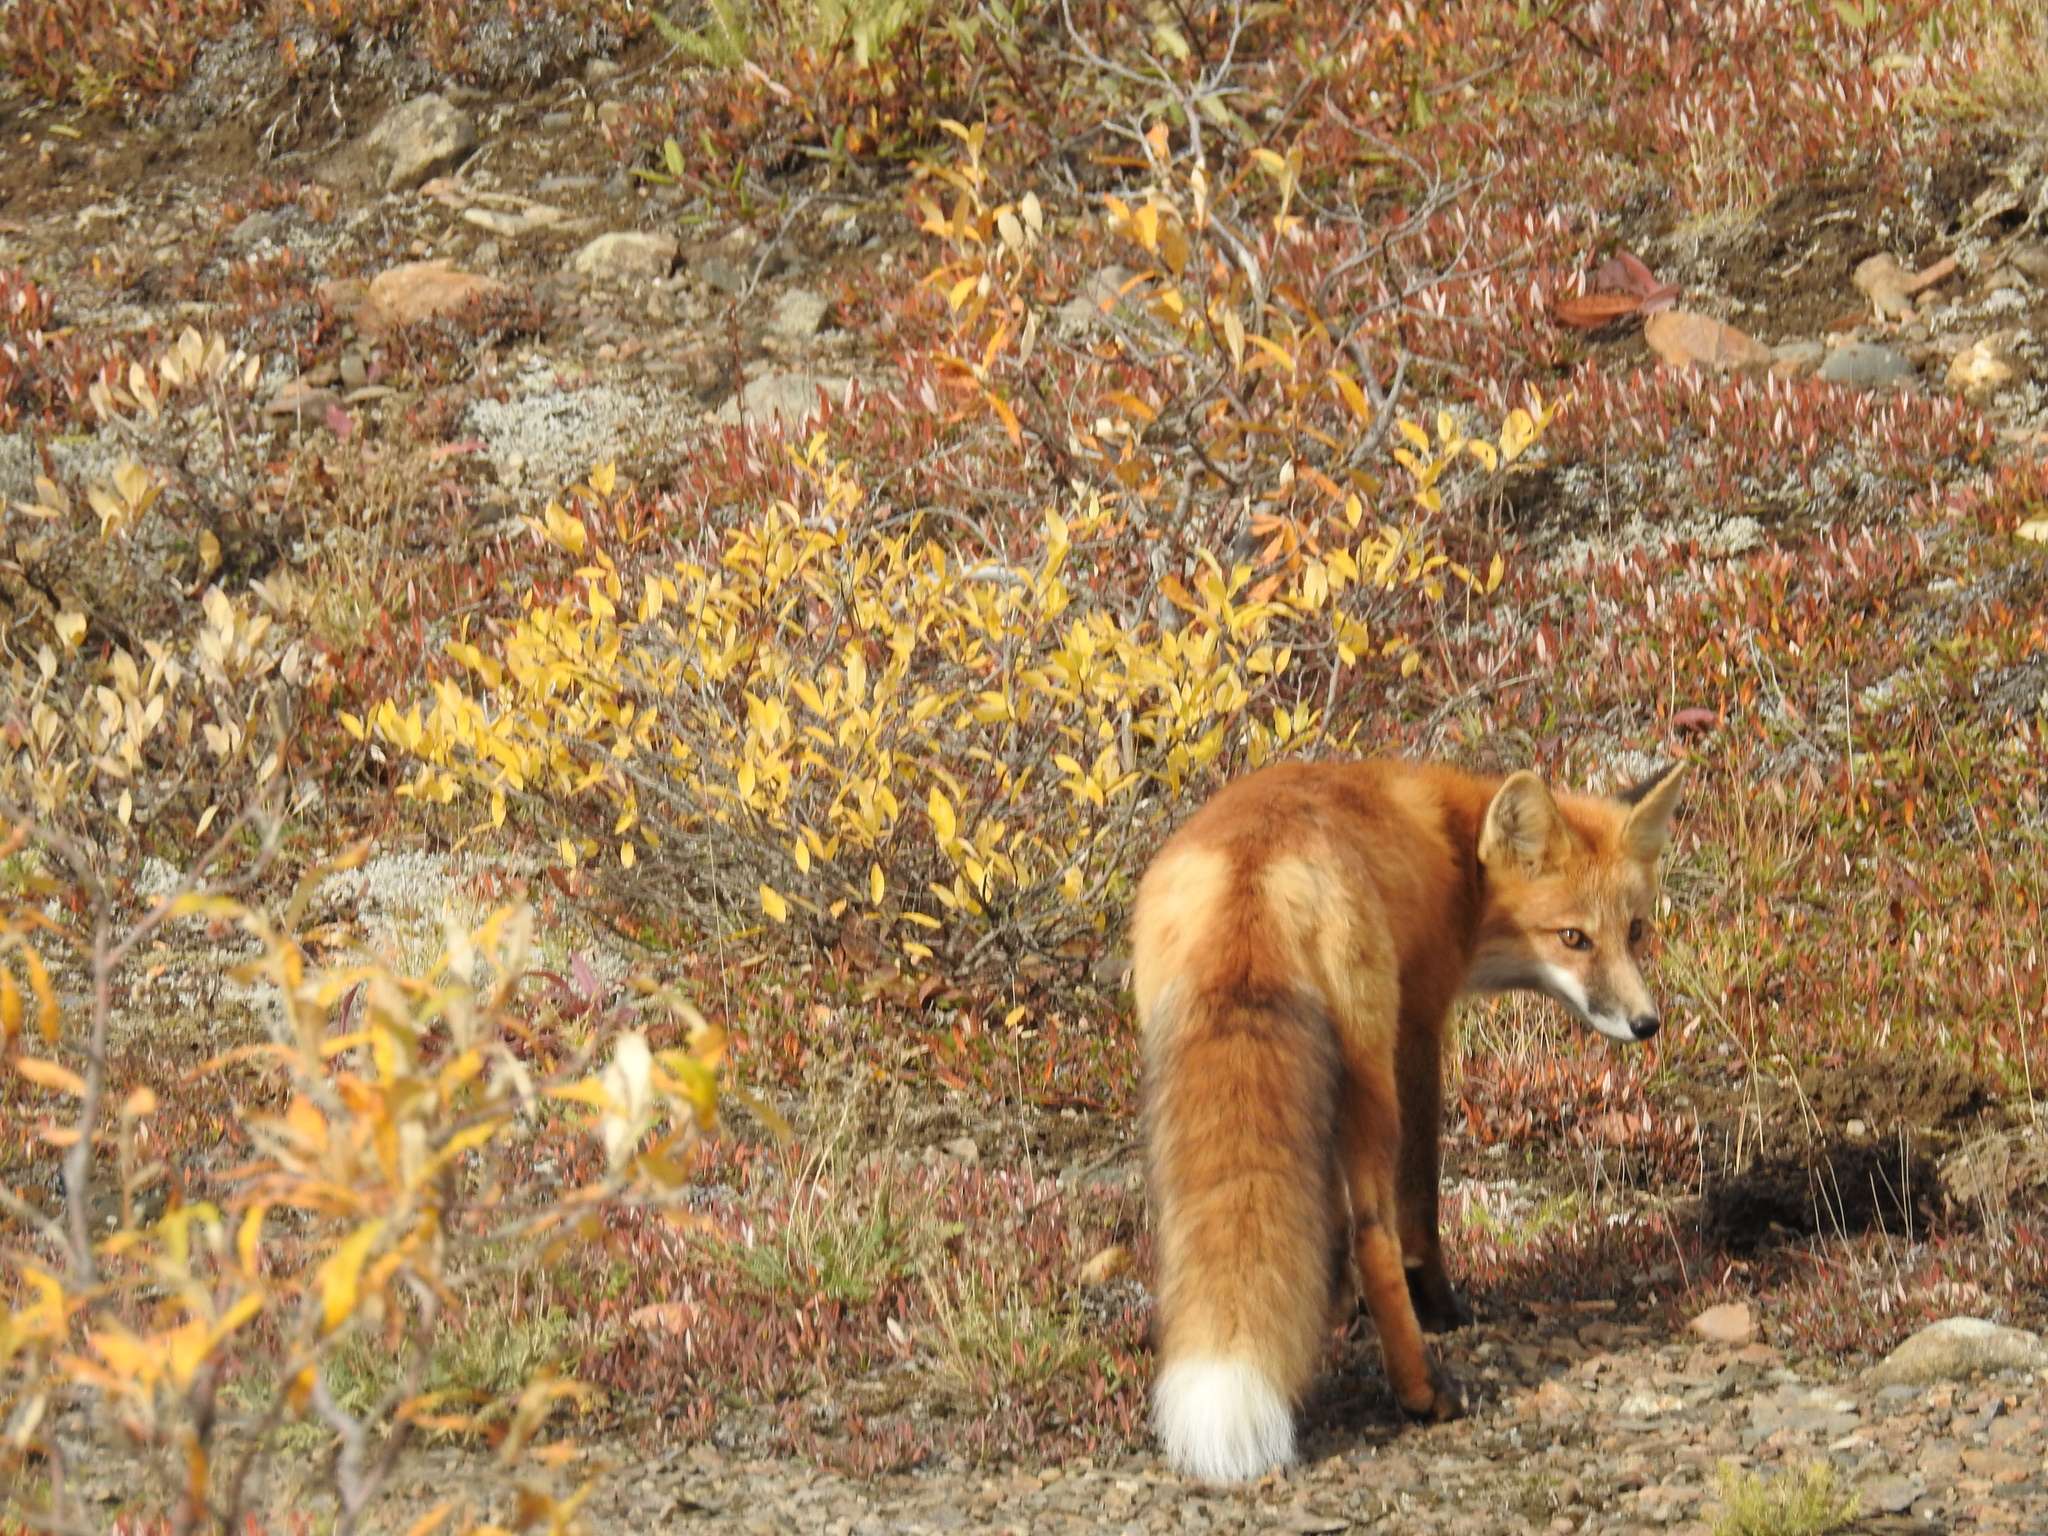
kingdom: Animalia
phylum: Chordata
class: Mammalia
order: Carnivora
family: Canidae
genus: Vulpes
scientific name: Vulpes vulpes
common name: Red fox
